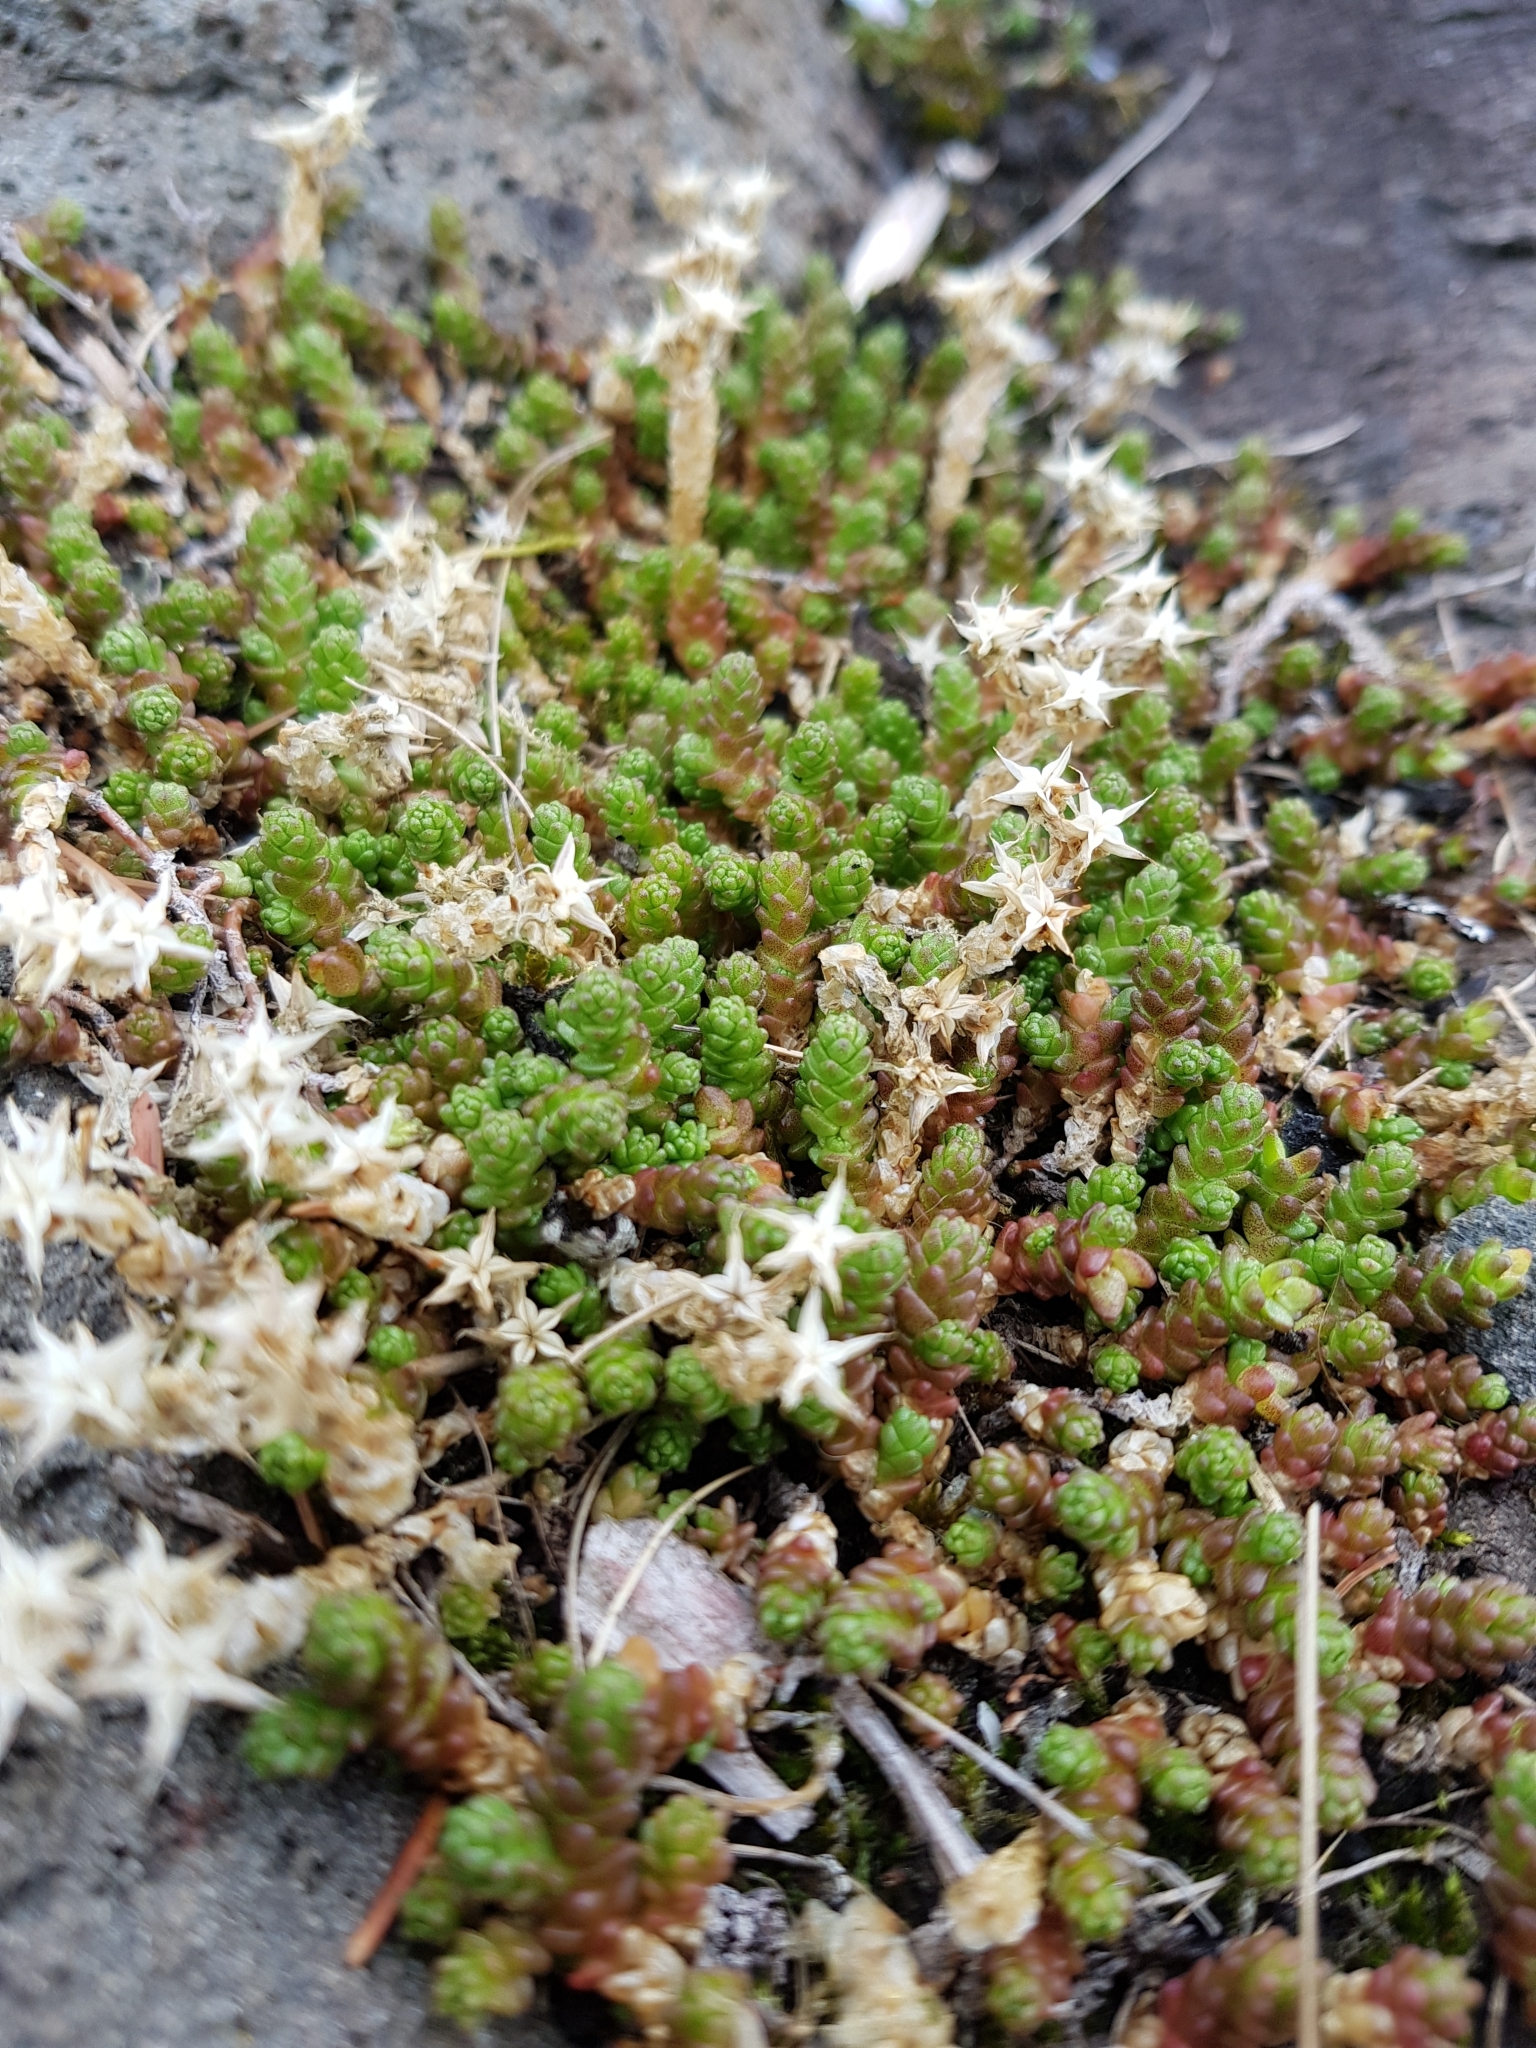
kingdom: Plantae
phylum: Tracheophyta
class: Magnoliopsida
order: Saxifragales
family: Crassulaceae
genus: Sedum
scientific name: Sedum acre
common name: Biting stonecrop
